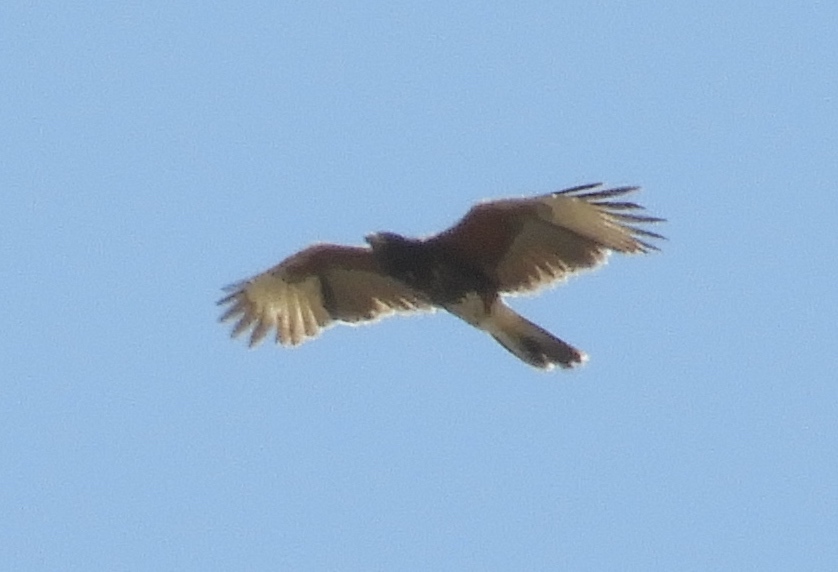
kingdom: Animalia
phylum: Chordata
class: Aves
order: Accipitriformes
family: Accipitridae
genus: Parabuteo
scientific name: Parabuteo unicinctus
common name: Harris's hawk
